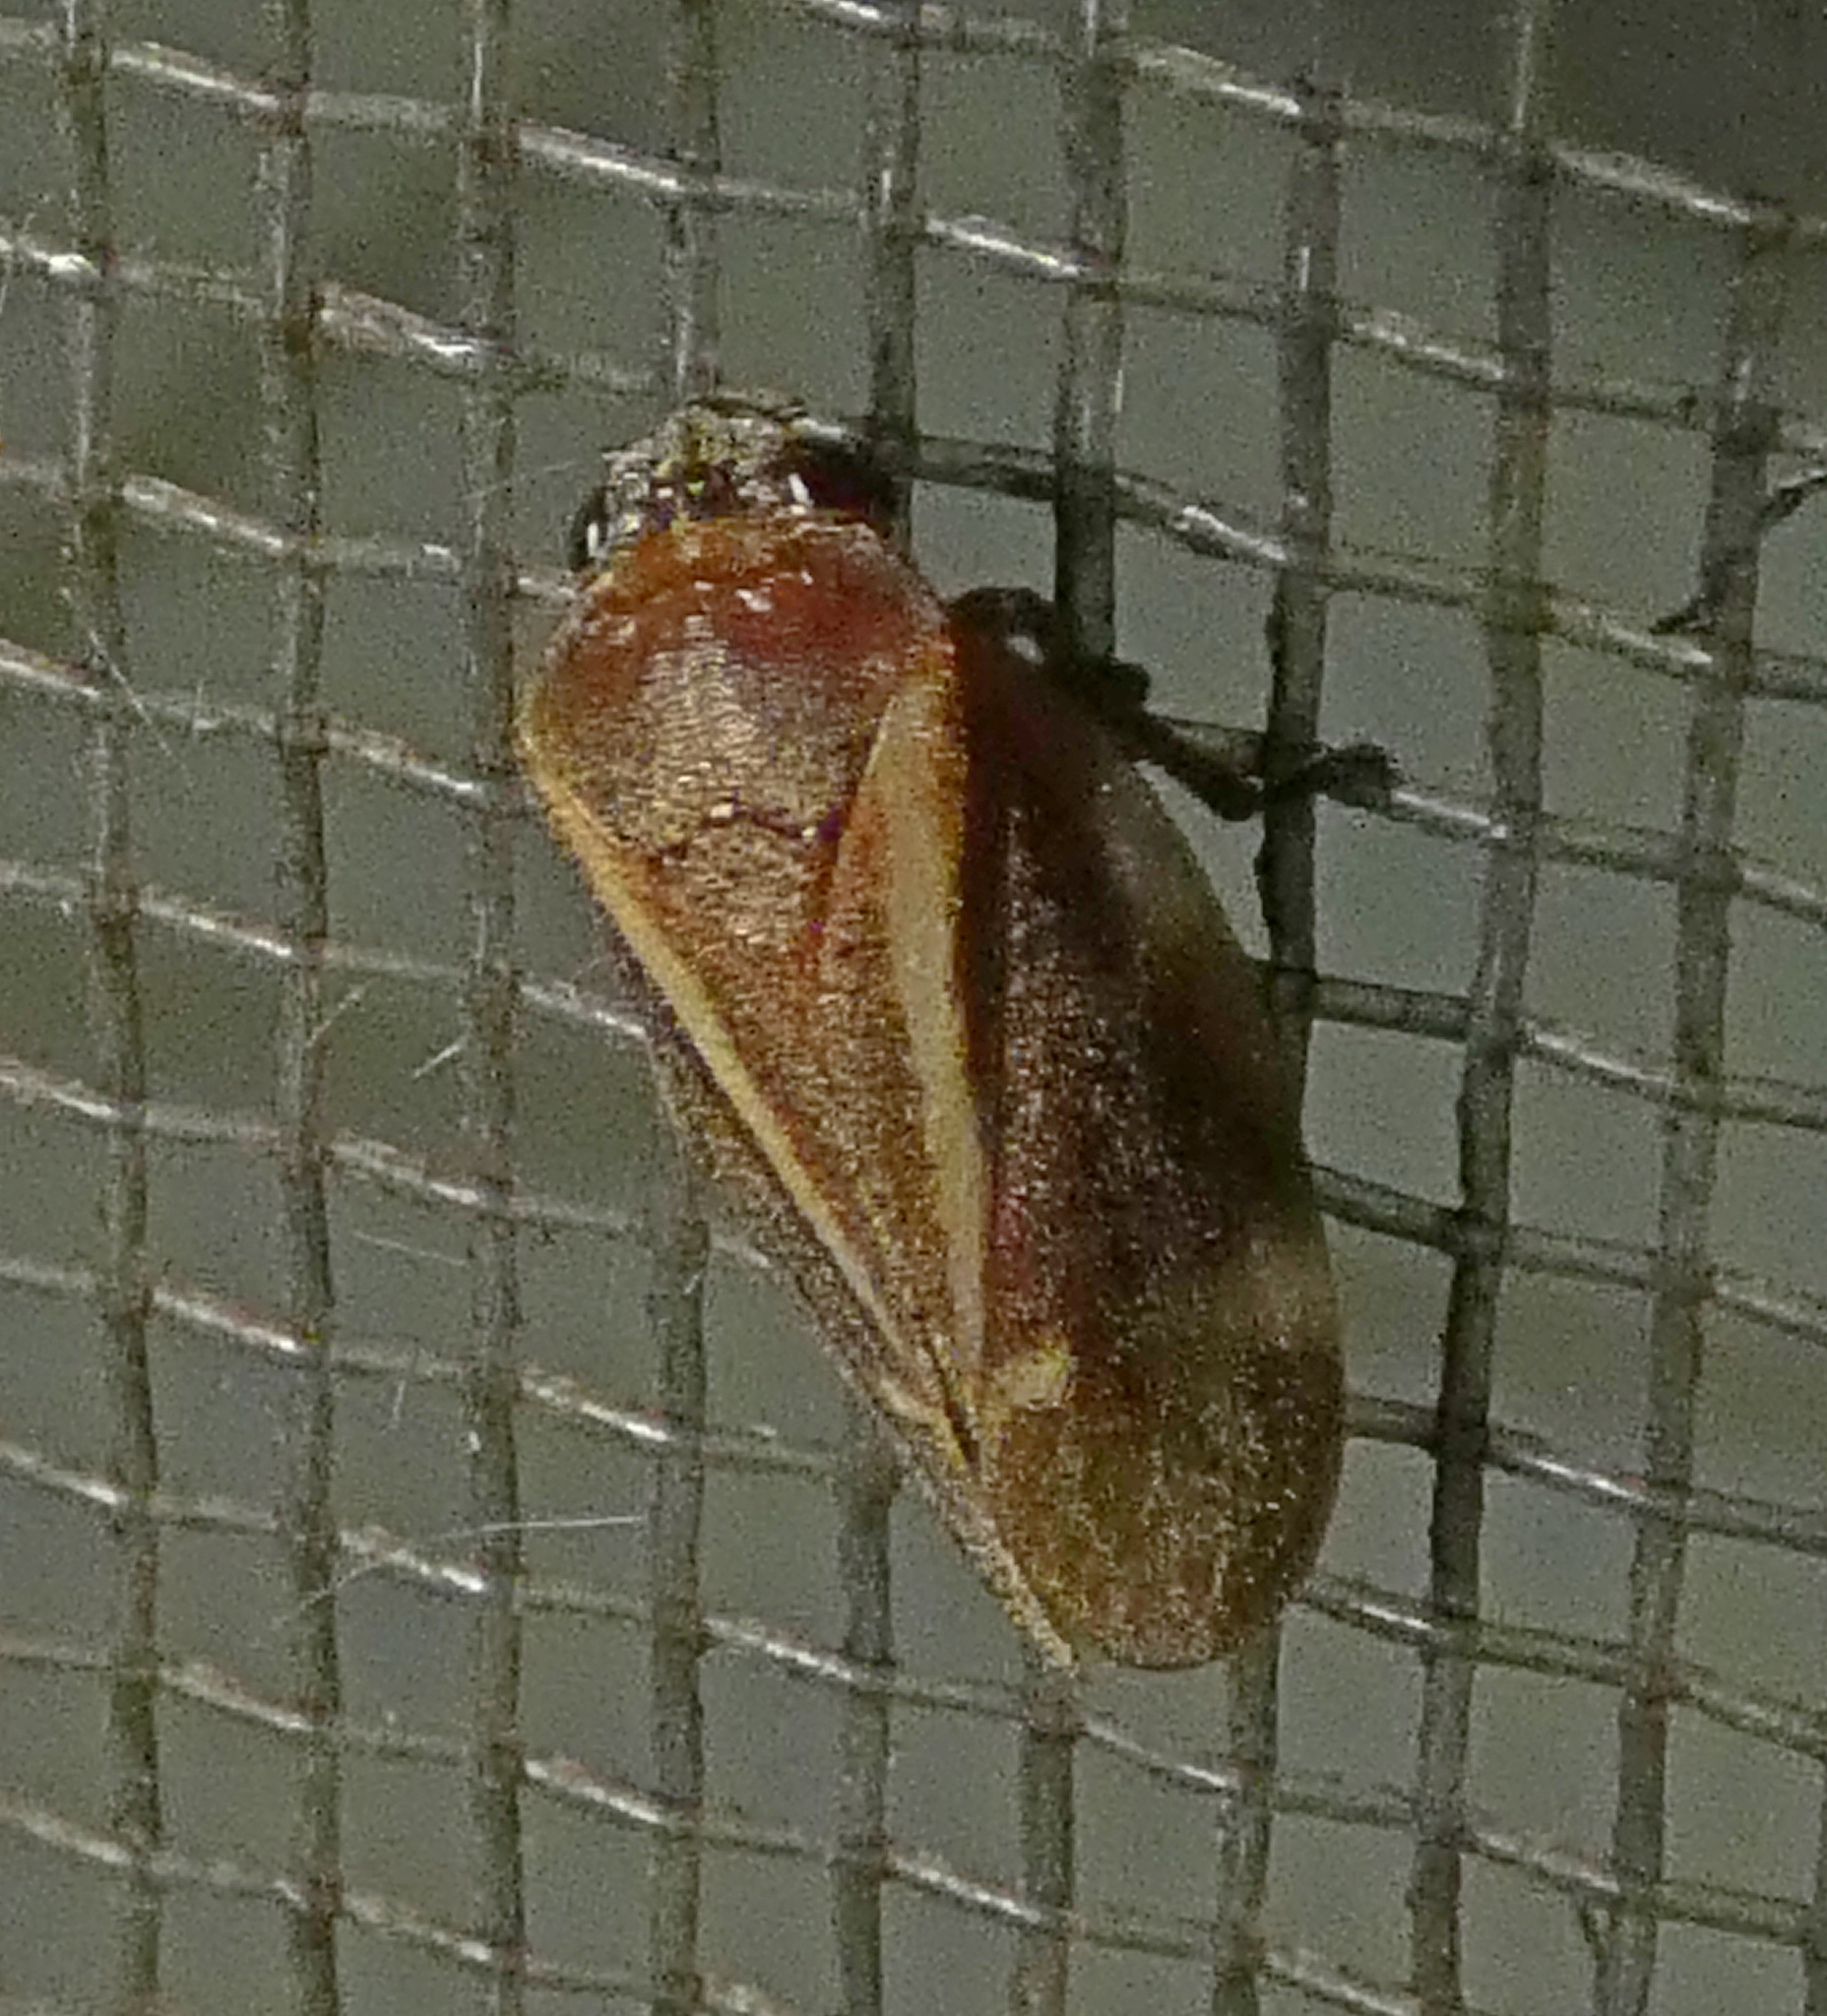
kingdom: Animalia
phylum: Arthropoda
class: Insecta
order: Hemiptera
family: Cercopidae
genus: Deois
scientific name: Deois incompleta
